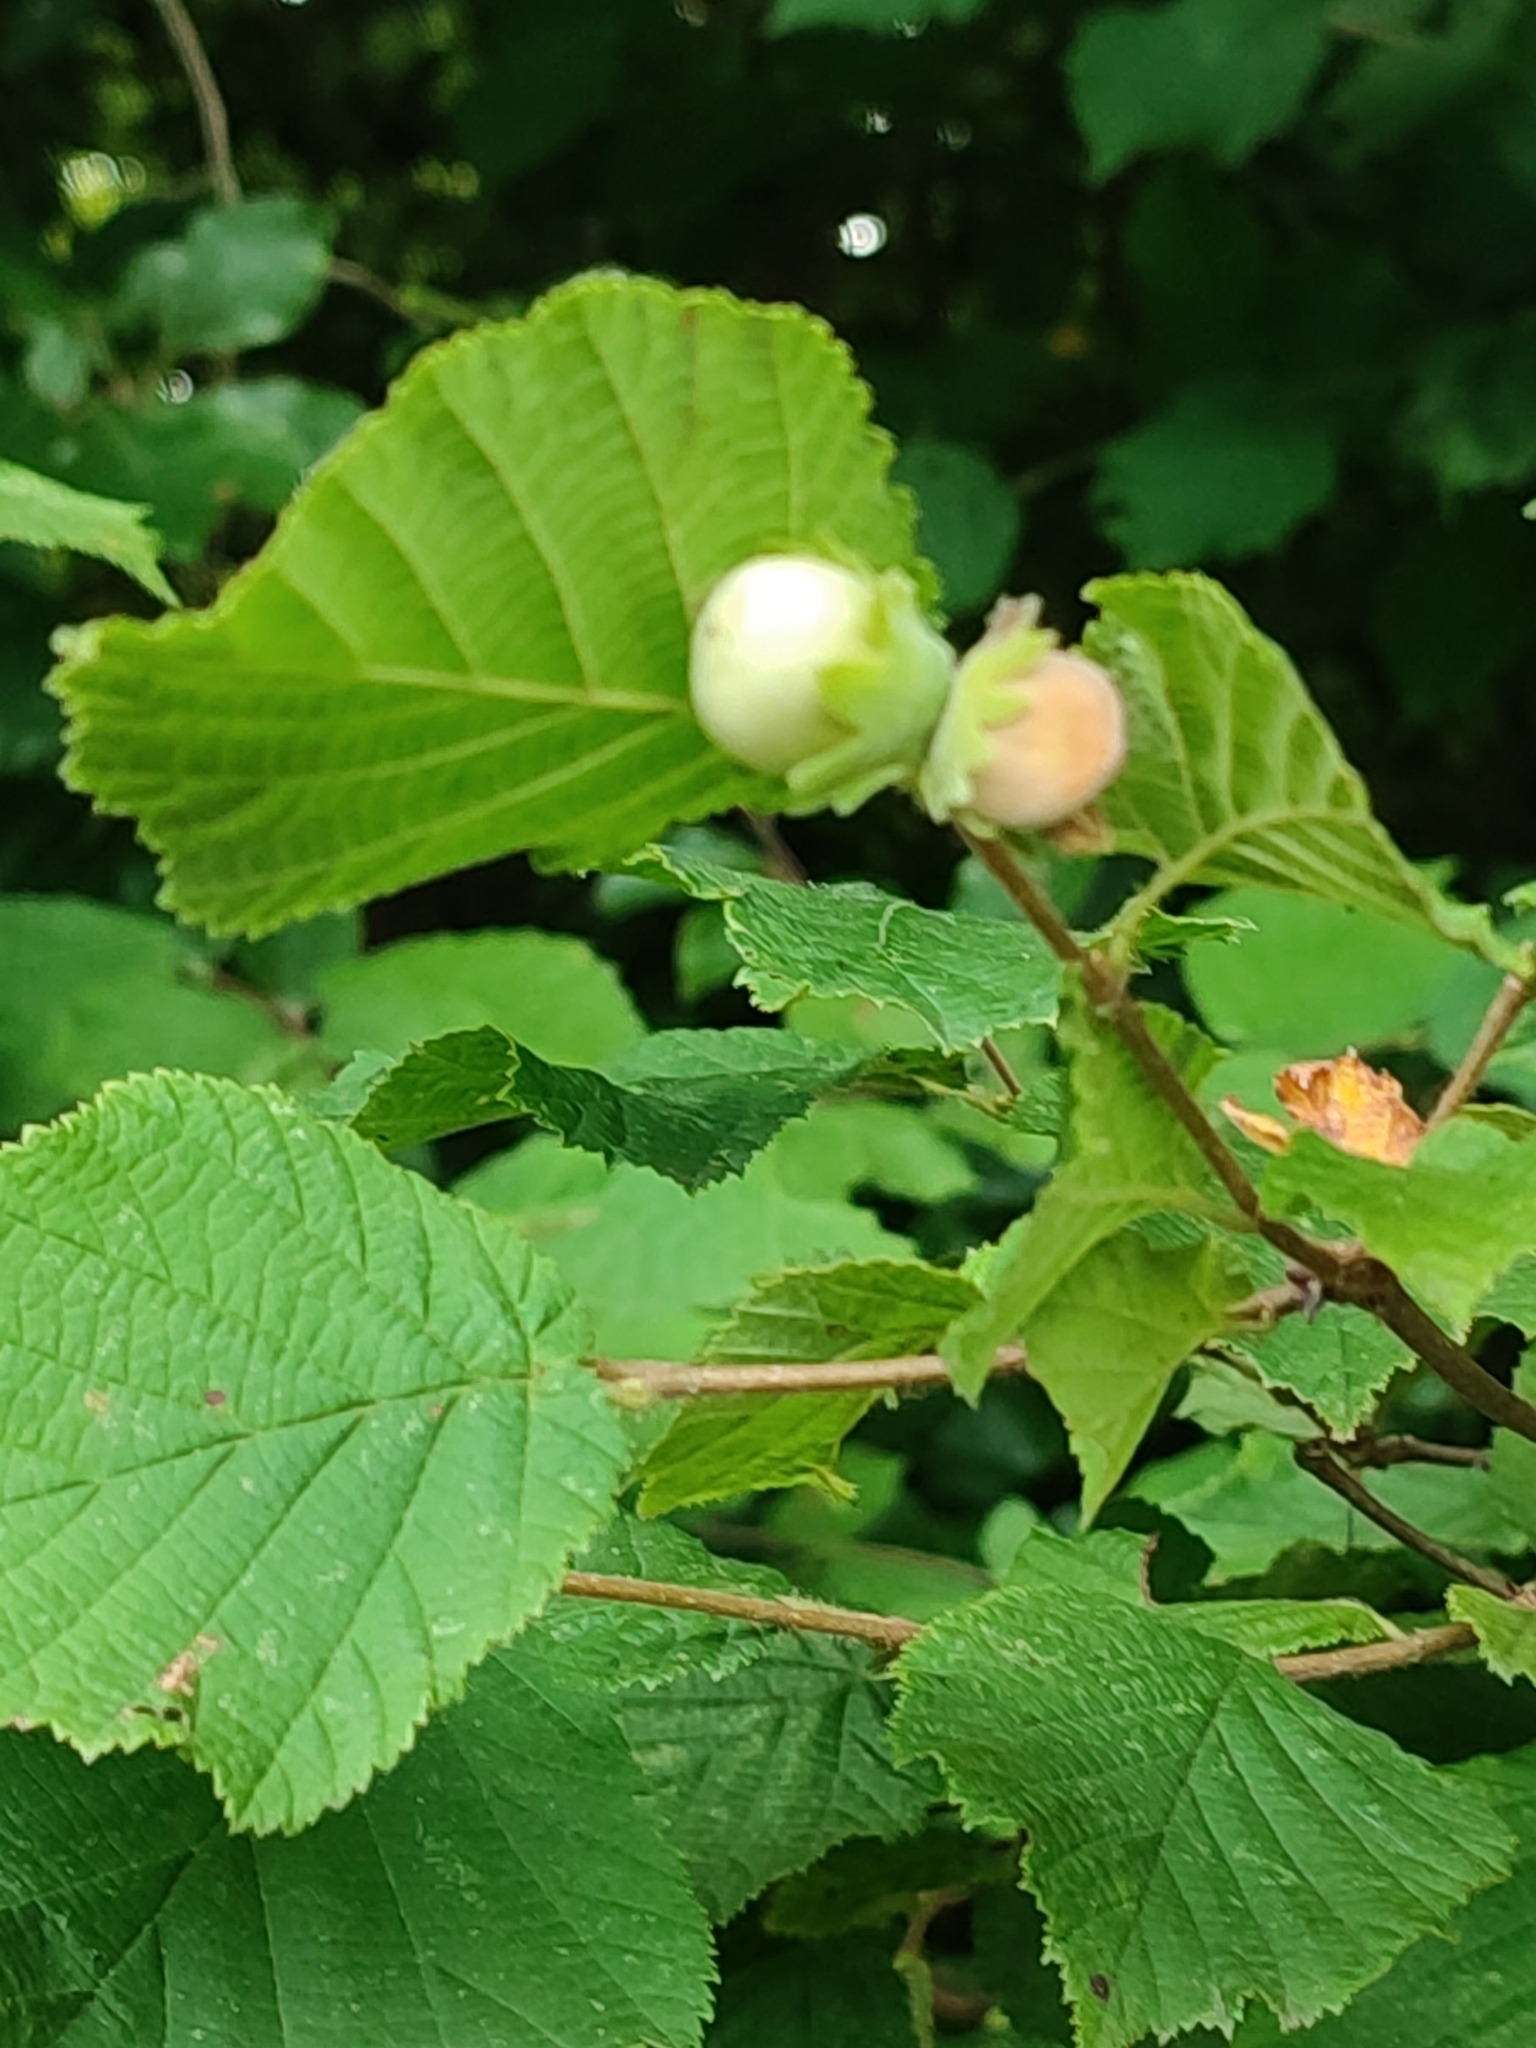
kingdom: Plantae
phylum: Tracheophyta
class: Magnoliopsida
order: Fagales
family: Betulaceae
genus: Corylus
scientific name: Corylus avellana
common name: European hazel
